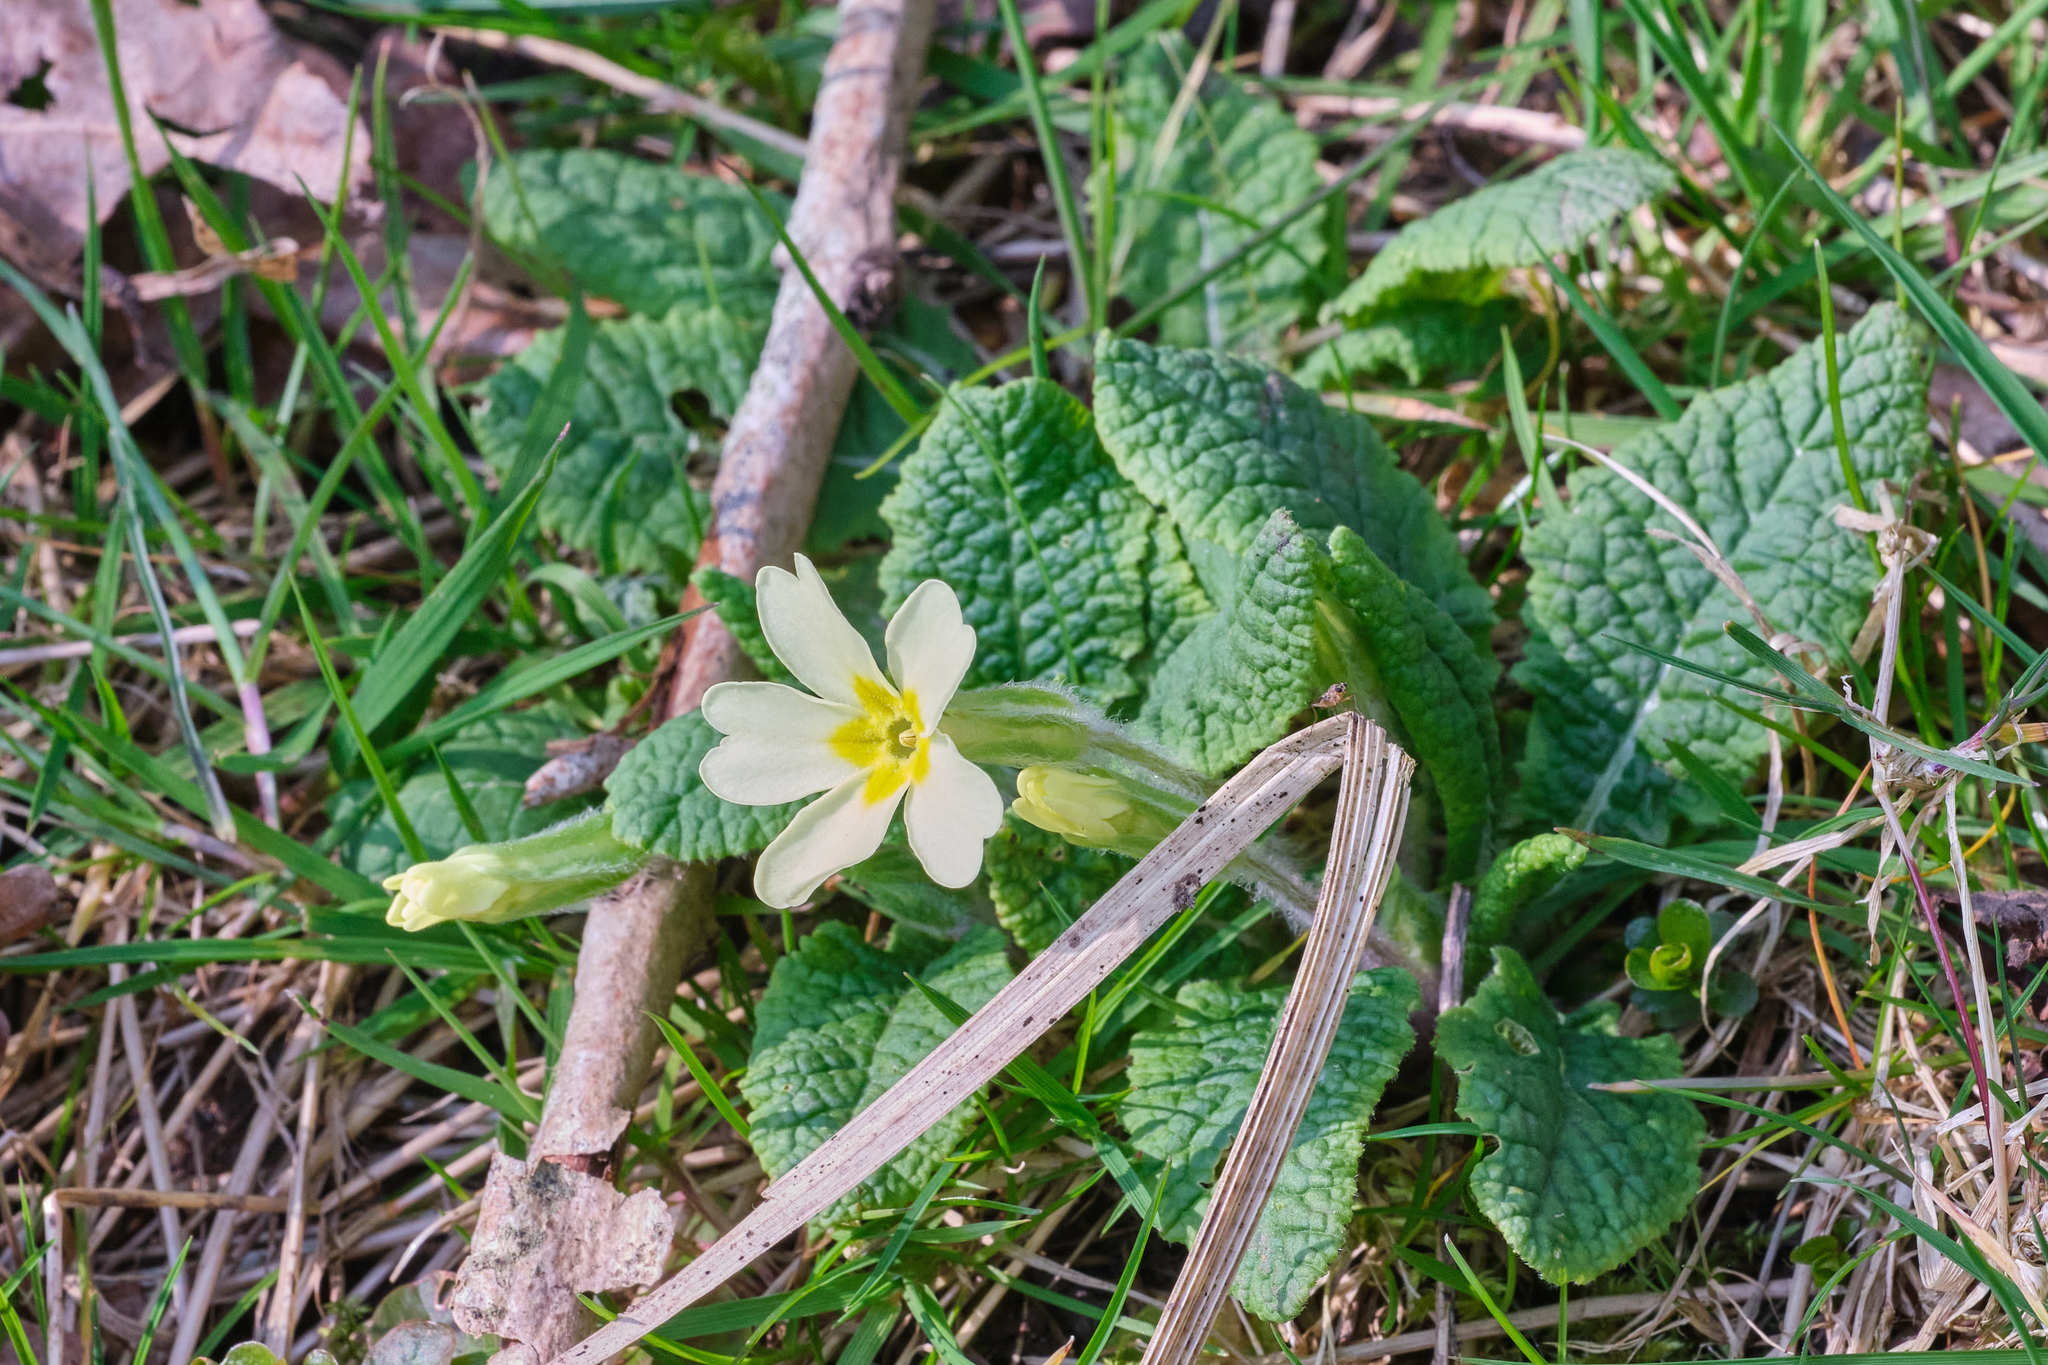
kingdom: Plantae
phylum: Tracheophyta
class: Magnoliopsida
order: Ericales
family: Primulaceae
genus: Primula
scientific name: Primula vulgaris
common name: Primrose
